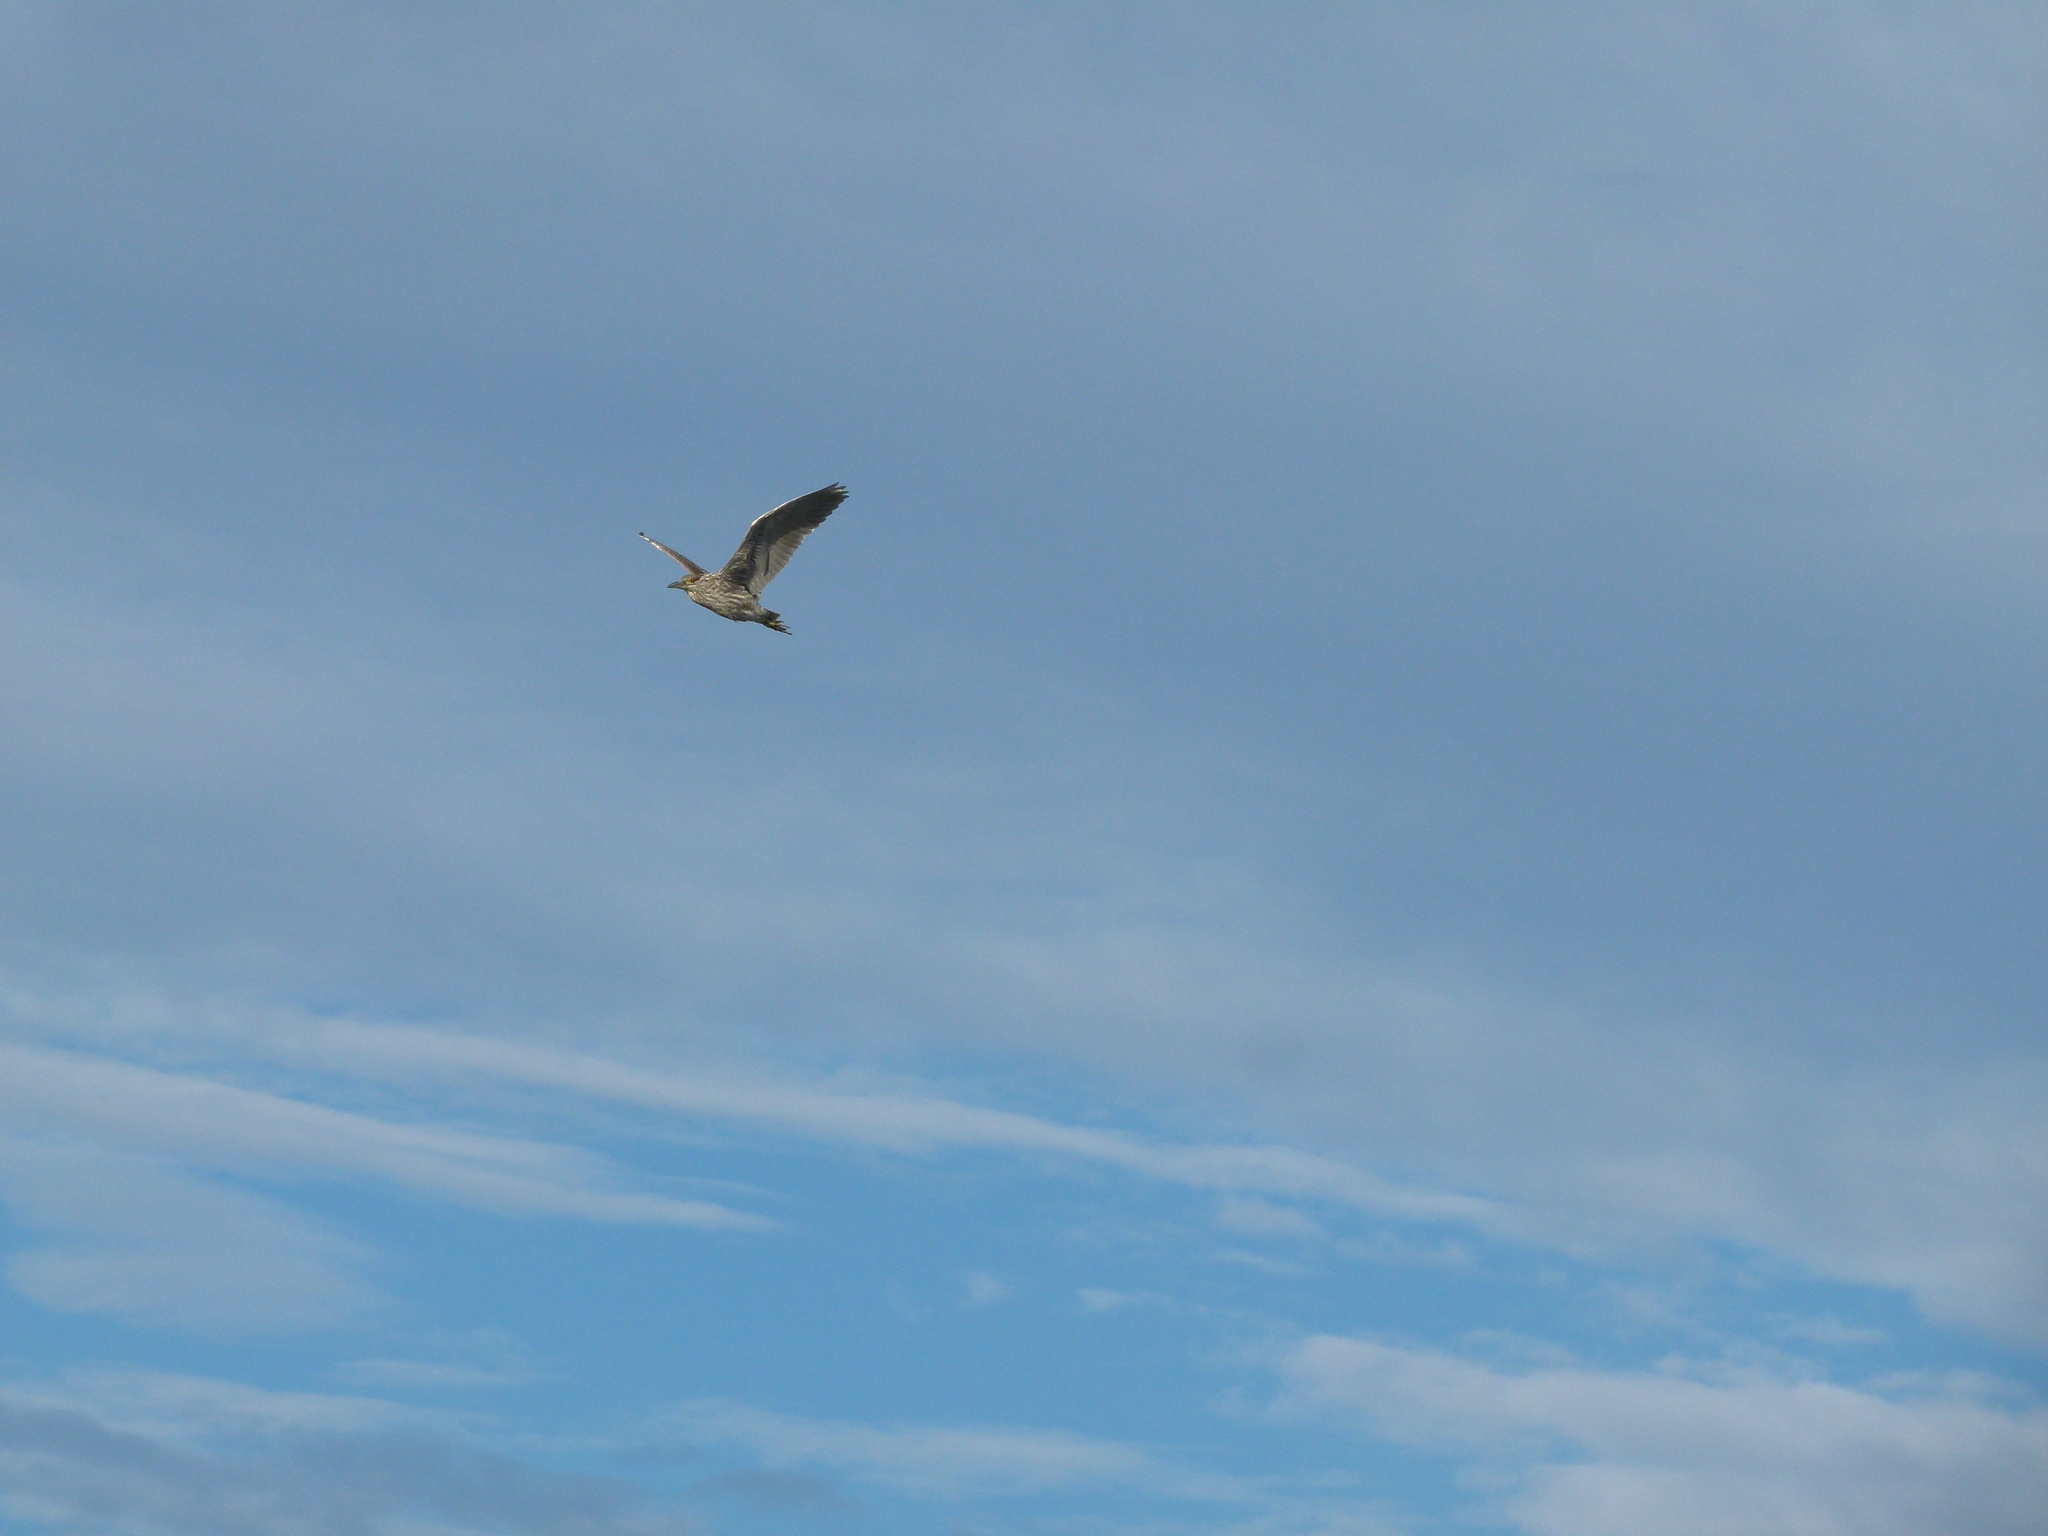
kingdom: Animalia
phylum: Chordata
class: Aves
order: Pelecaniformes
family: Ardeidae
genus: Nycticorax
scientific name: Nycticorax nycticorax
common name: Black-crowned night heron
